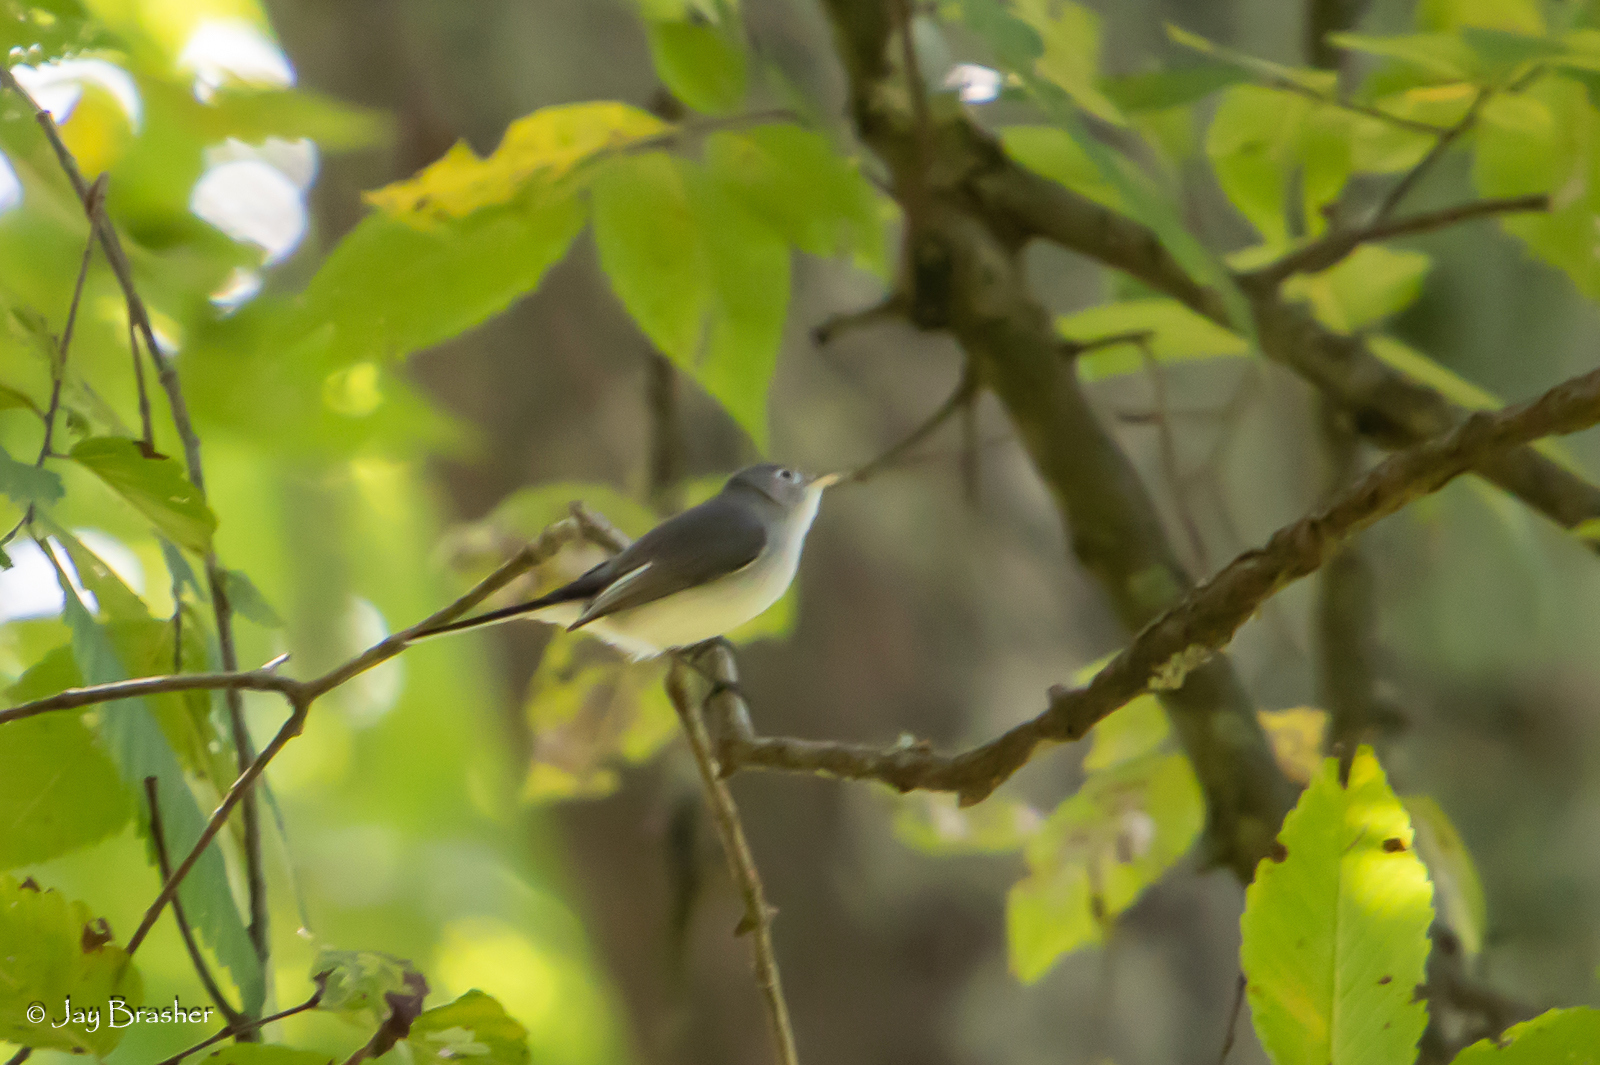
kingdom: Animalia
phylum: Chordata
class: Aves
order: Passeriformes
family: Polioptilidae
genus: Polioptila
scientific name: Polioptila caerulea
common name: Blue-gray gnatcatcher
